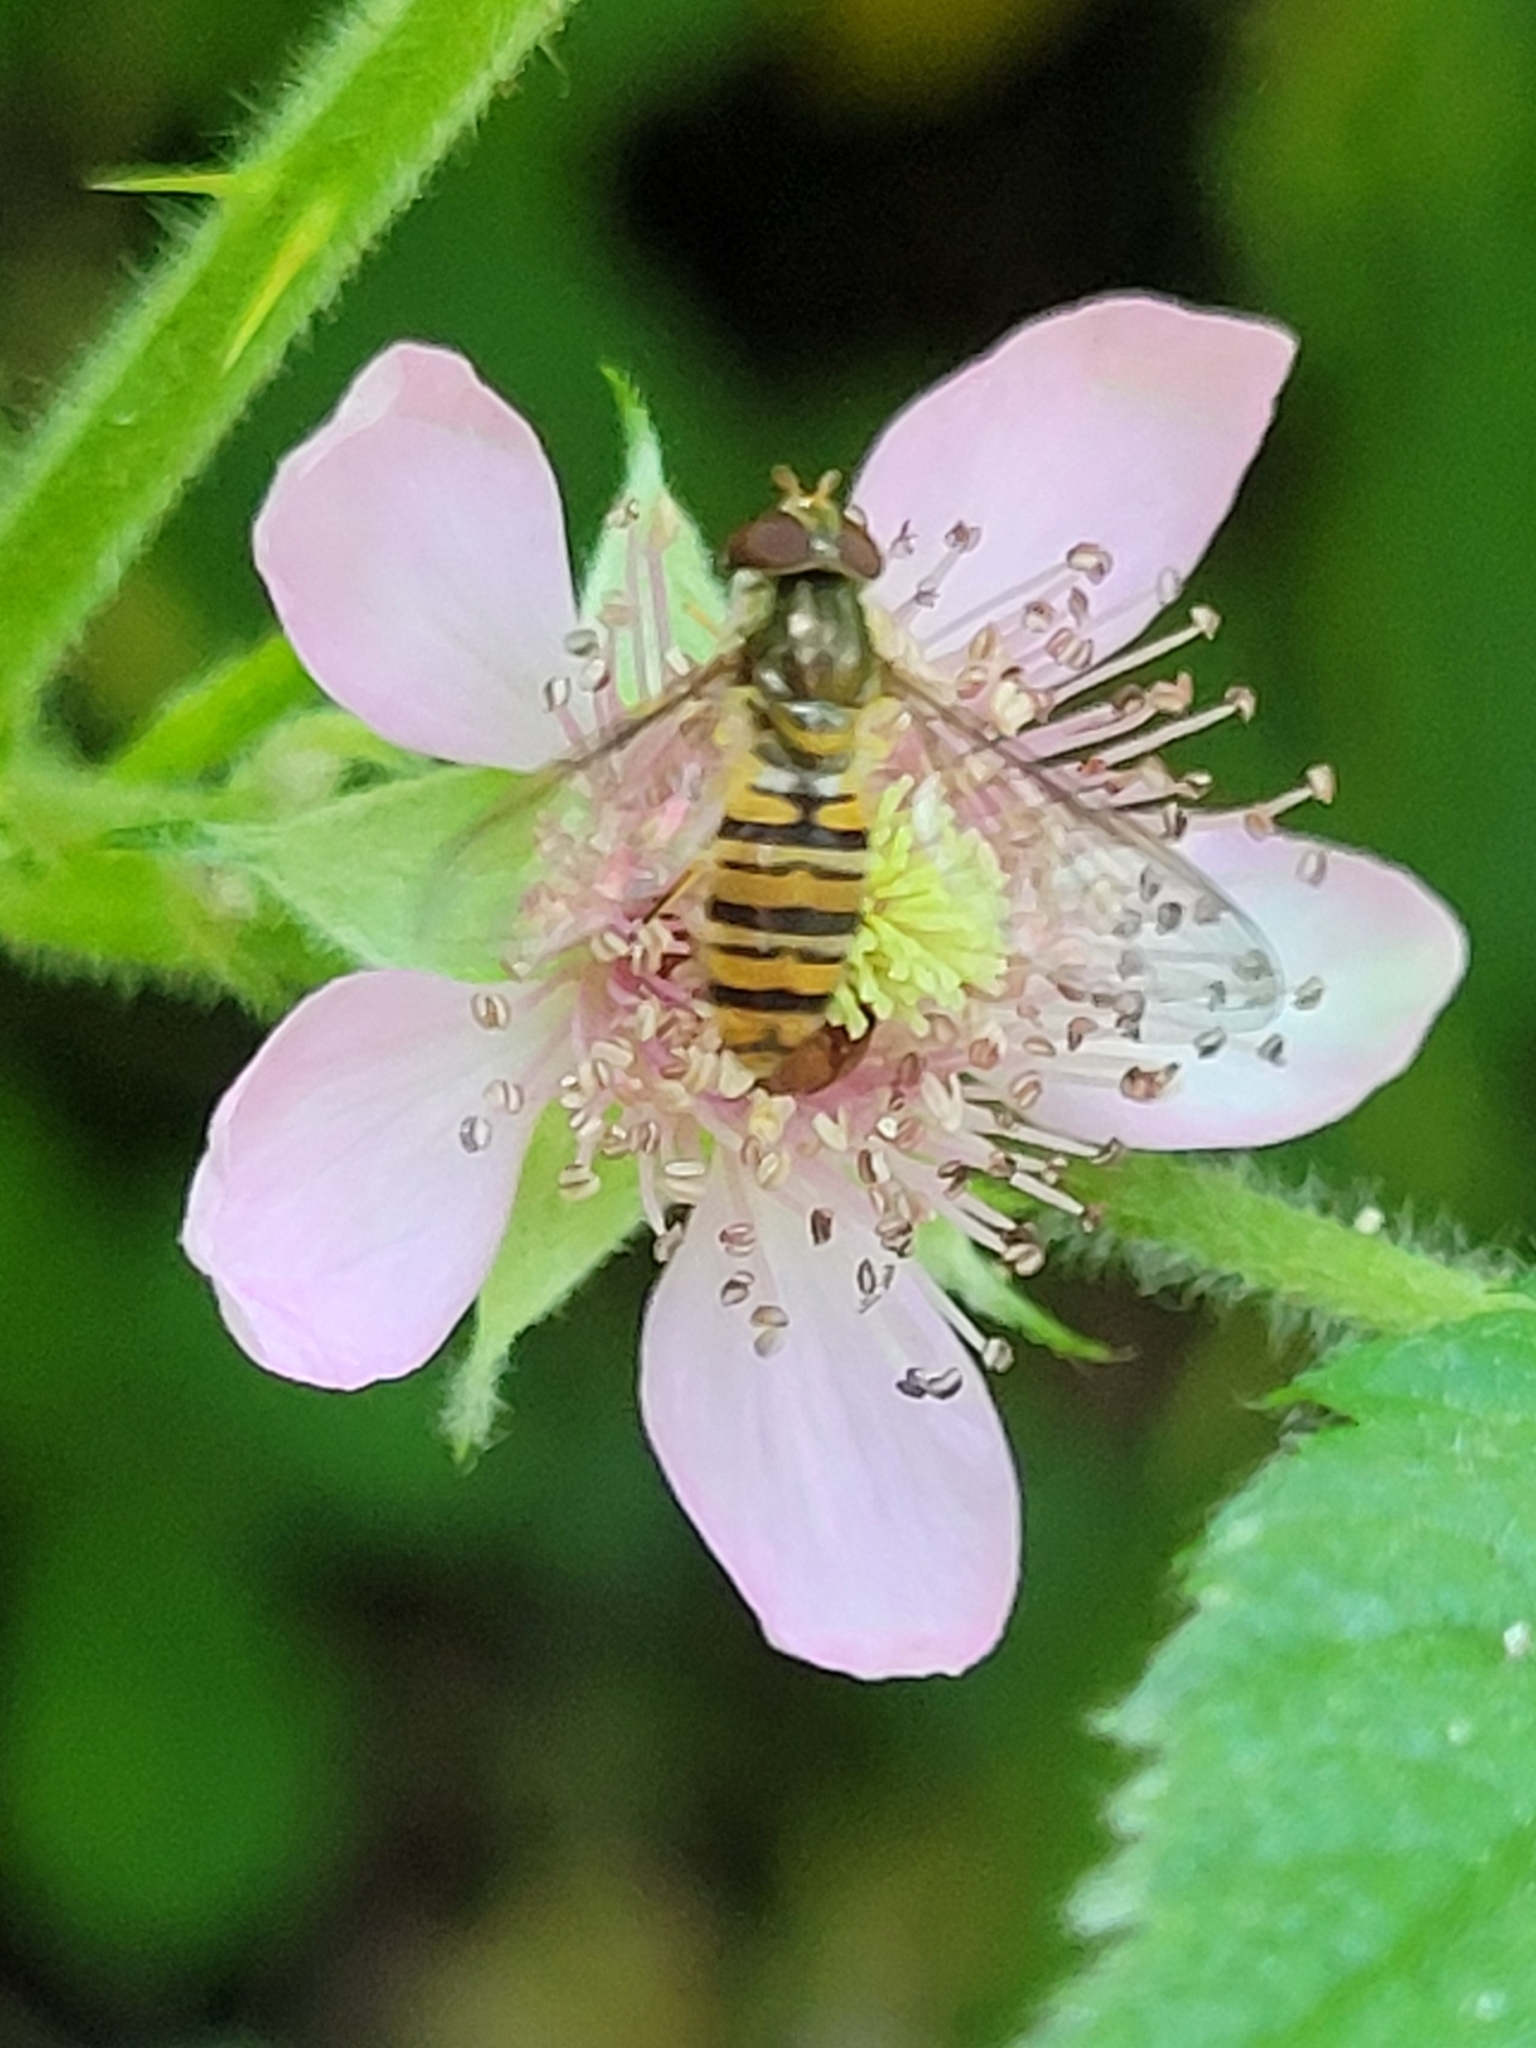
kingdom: Animalia
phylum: Arthropoda
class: Insecta
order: Diptera
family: Syrphidae
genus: Episyrphus
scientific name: Episyrphus balteatus
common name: Marmalade hoverfly
